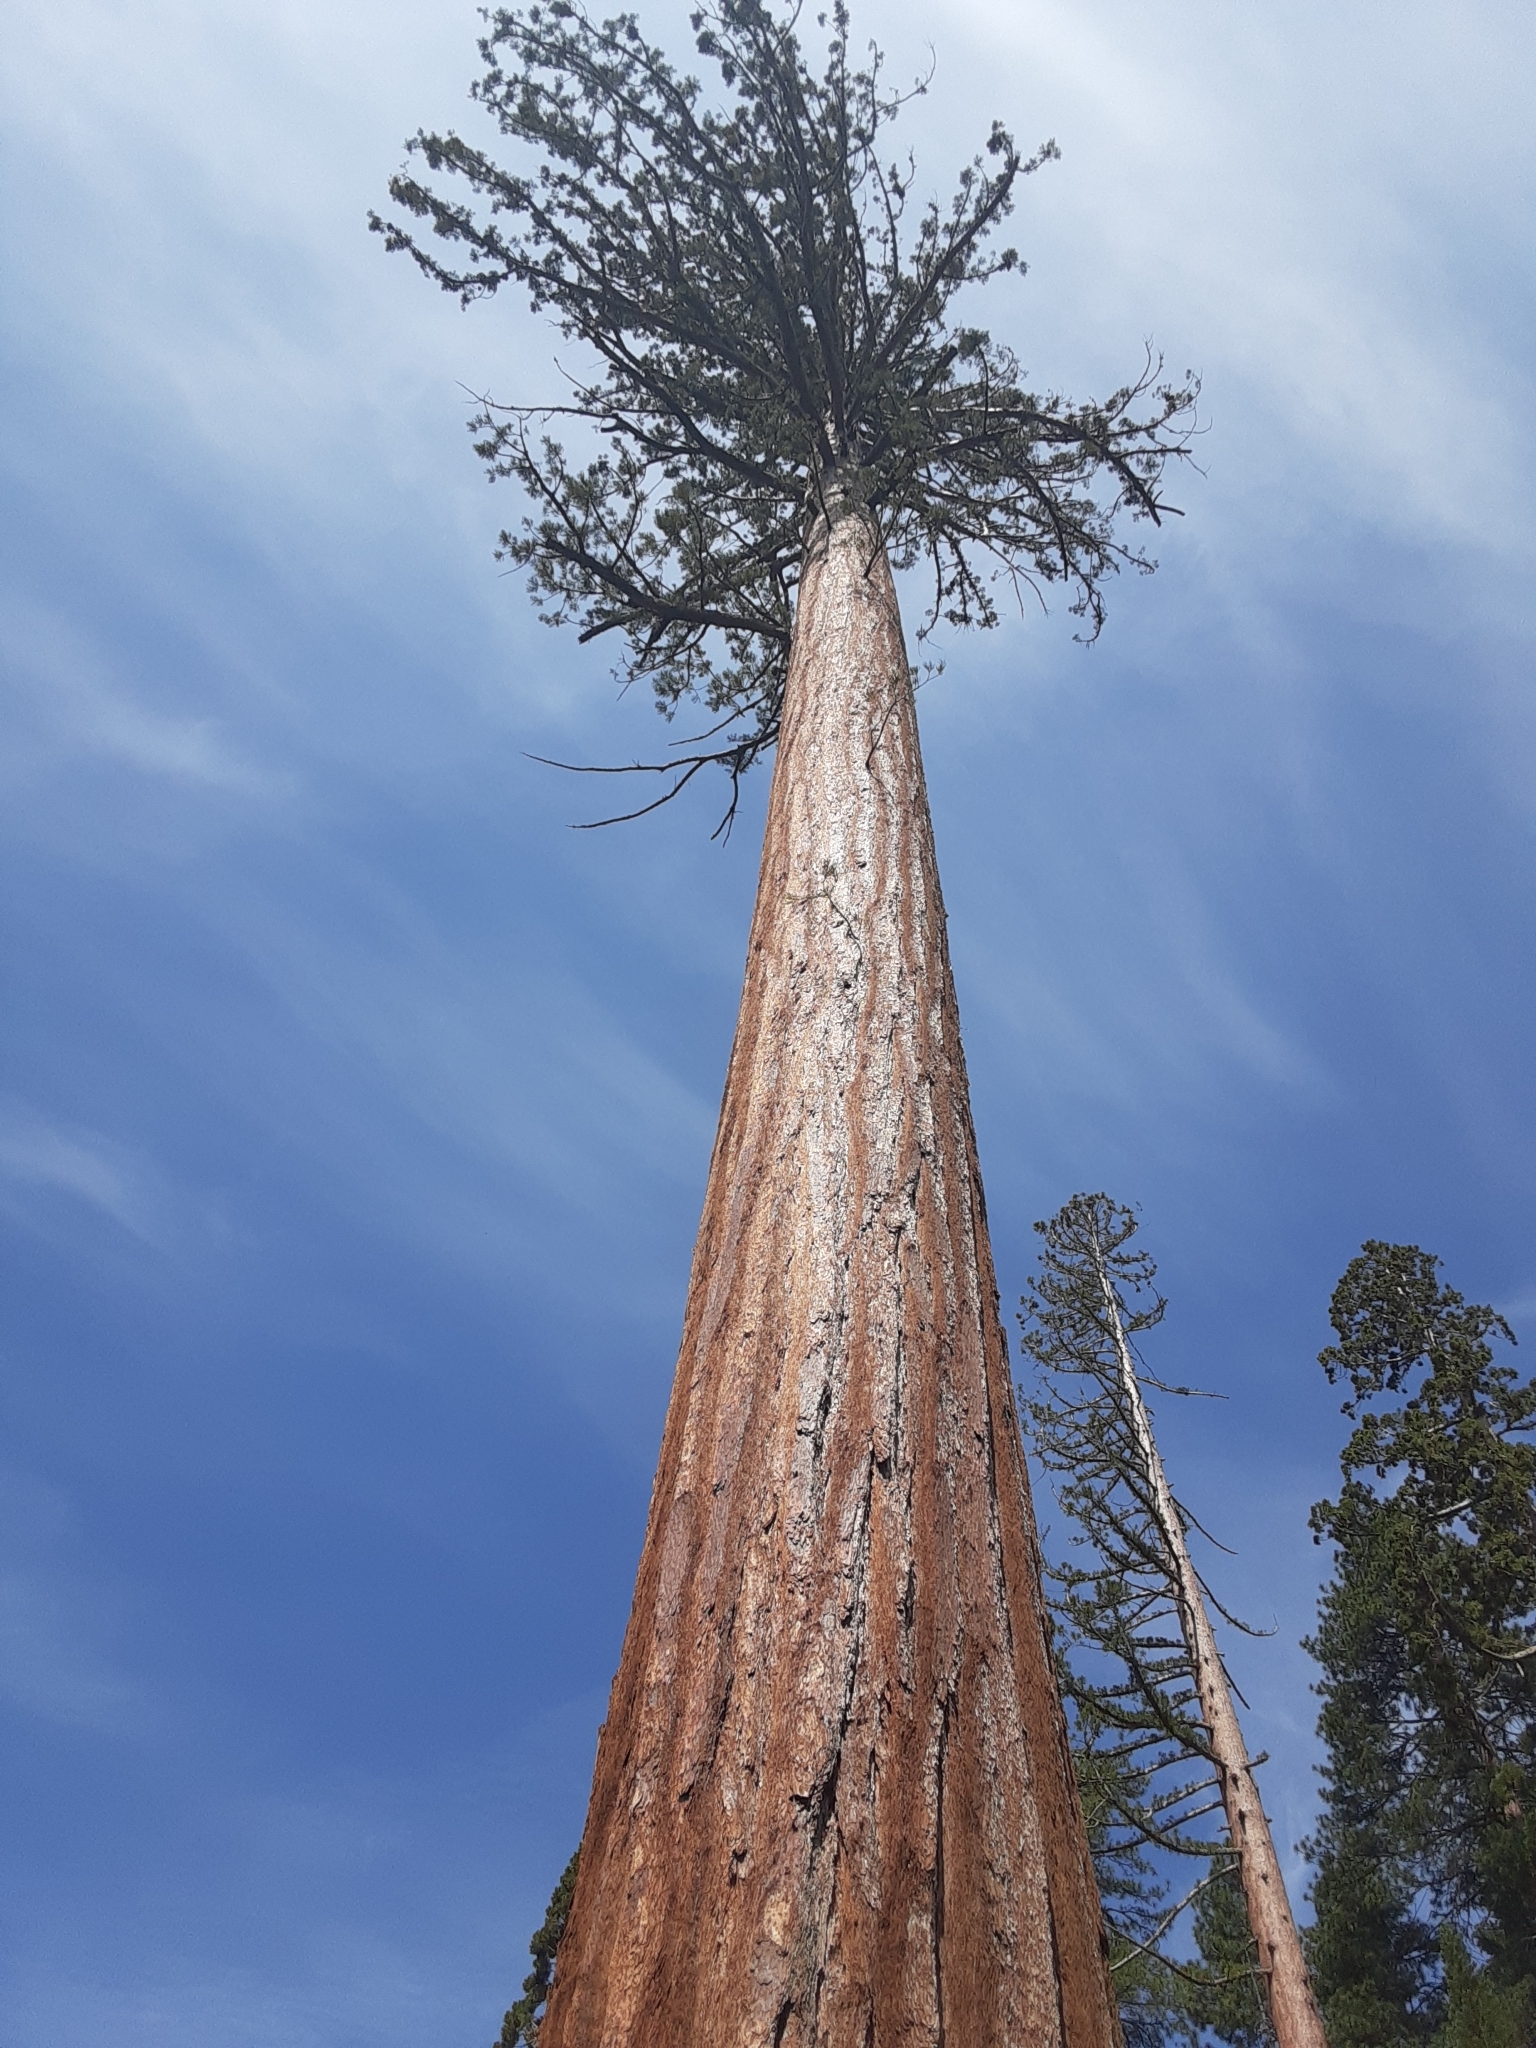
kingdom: Plantae
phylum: Tracheophyta
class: Pinopsida
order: Pinales
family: Cupressaceae
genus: Sequoiadendron
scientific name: Sequoiadendron giganteum
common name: Wellingtonia
